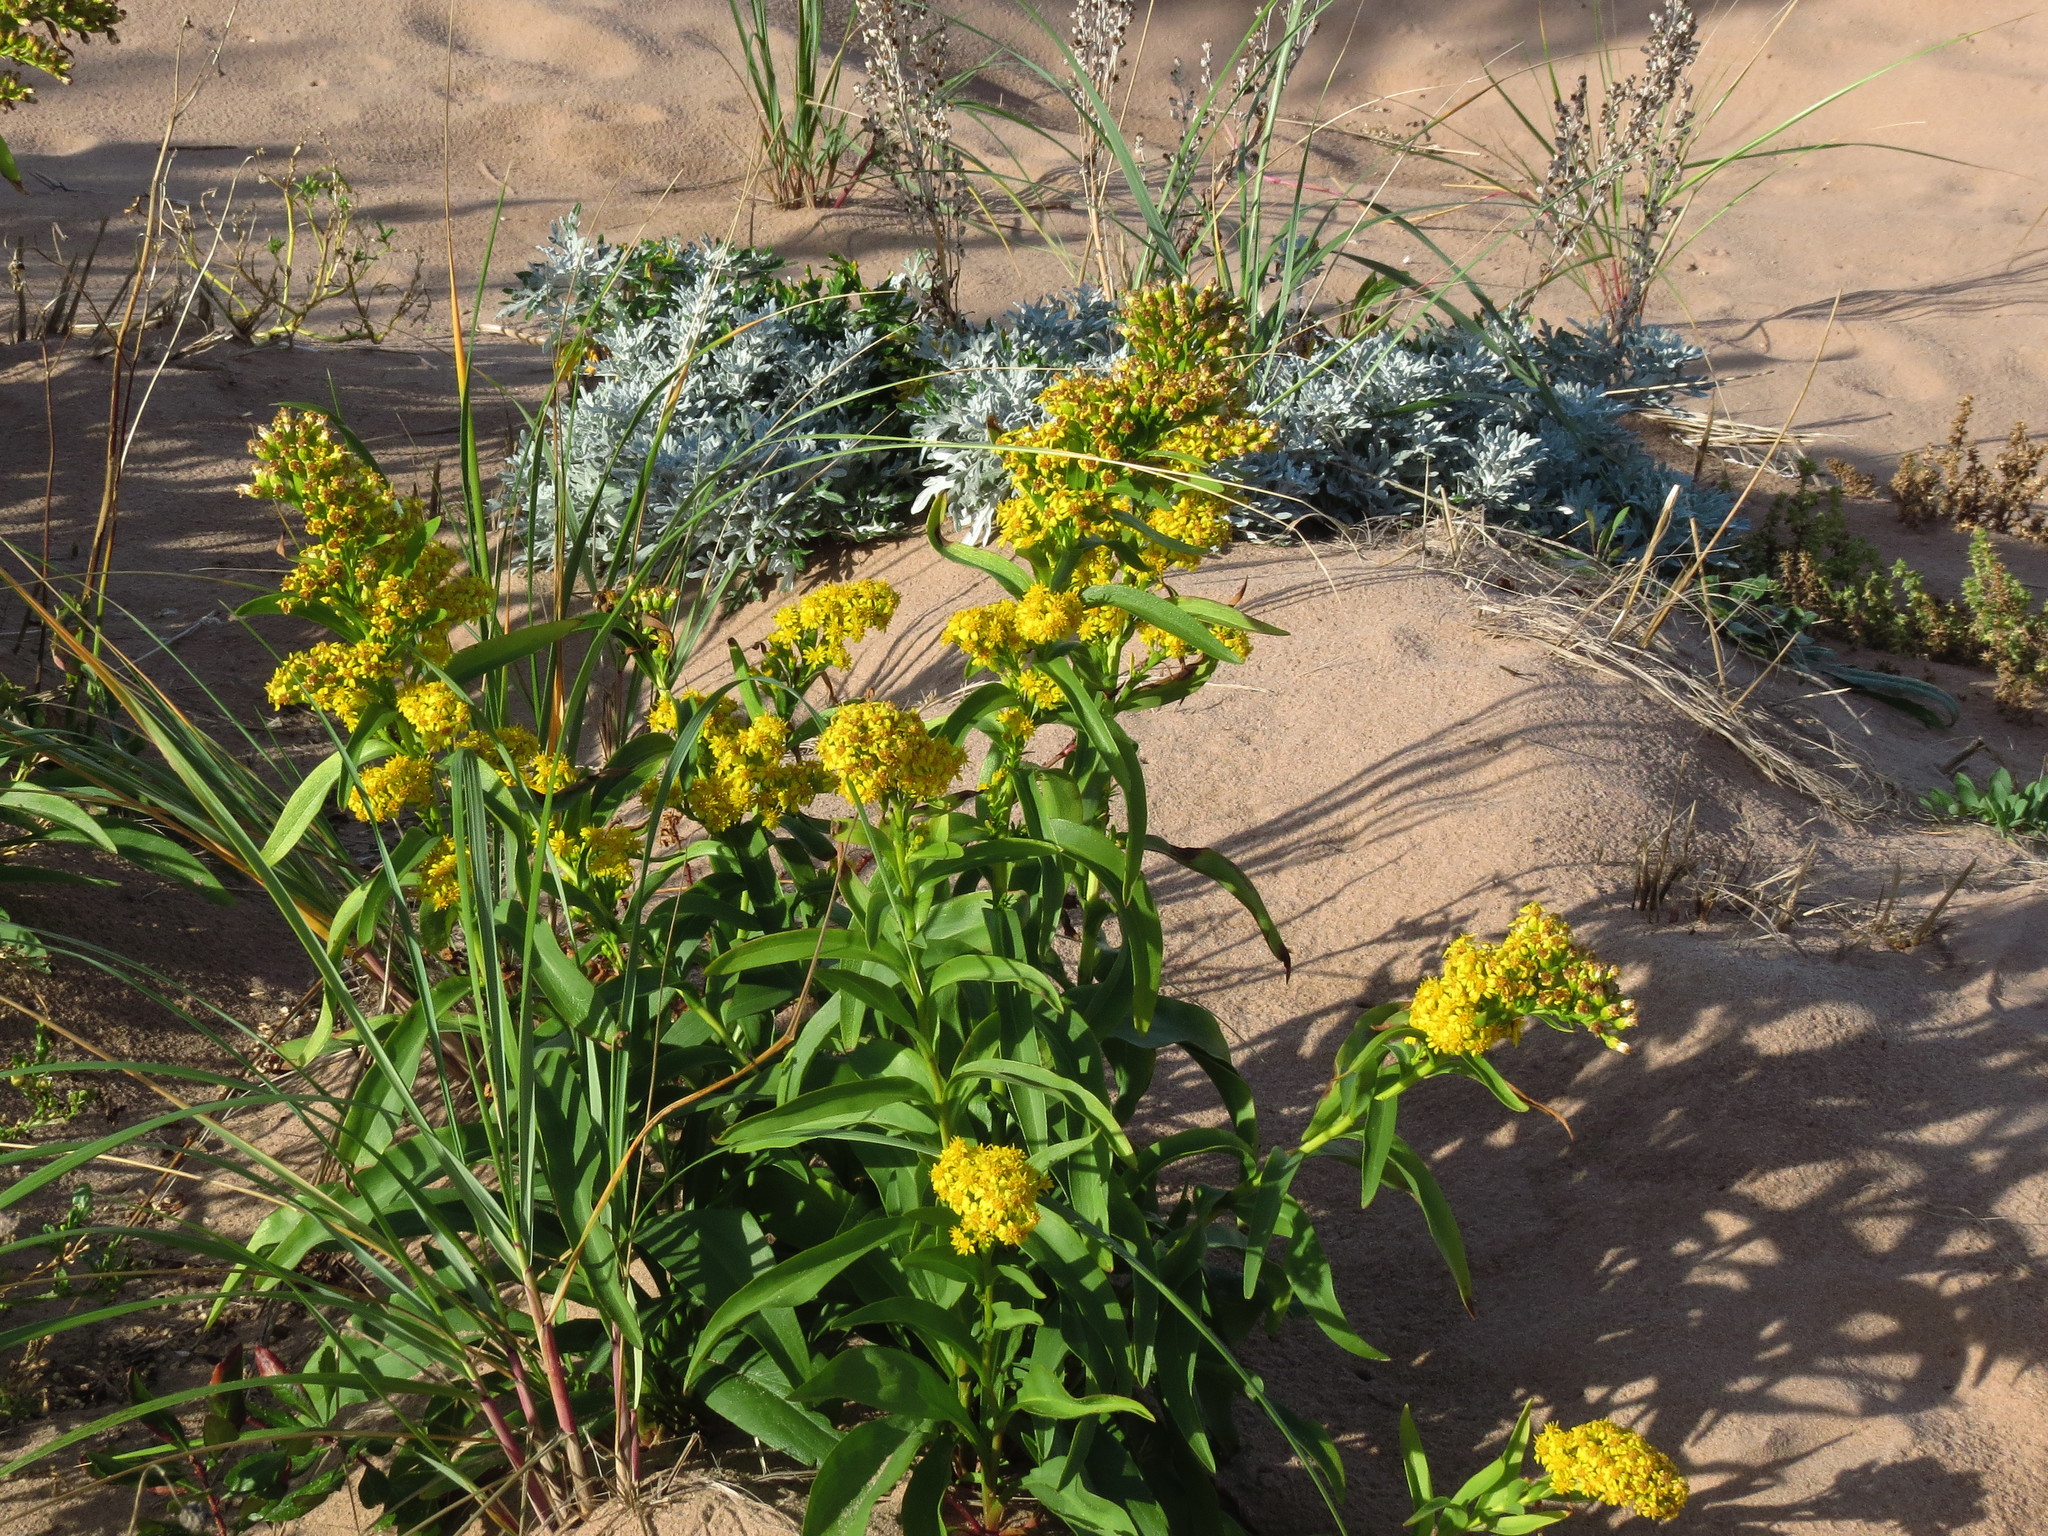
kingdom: Plantae
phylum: Tracheophyta
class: Magnoliopsida
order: Asterales
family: Asteraceae
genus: Solidago
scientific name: Solidago sempervirens
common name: Salt-marsh goldenrod
